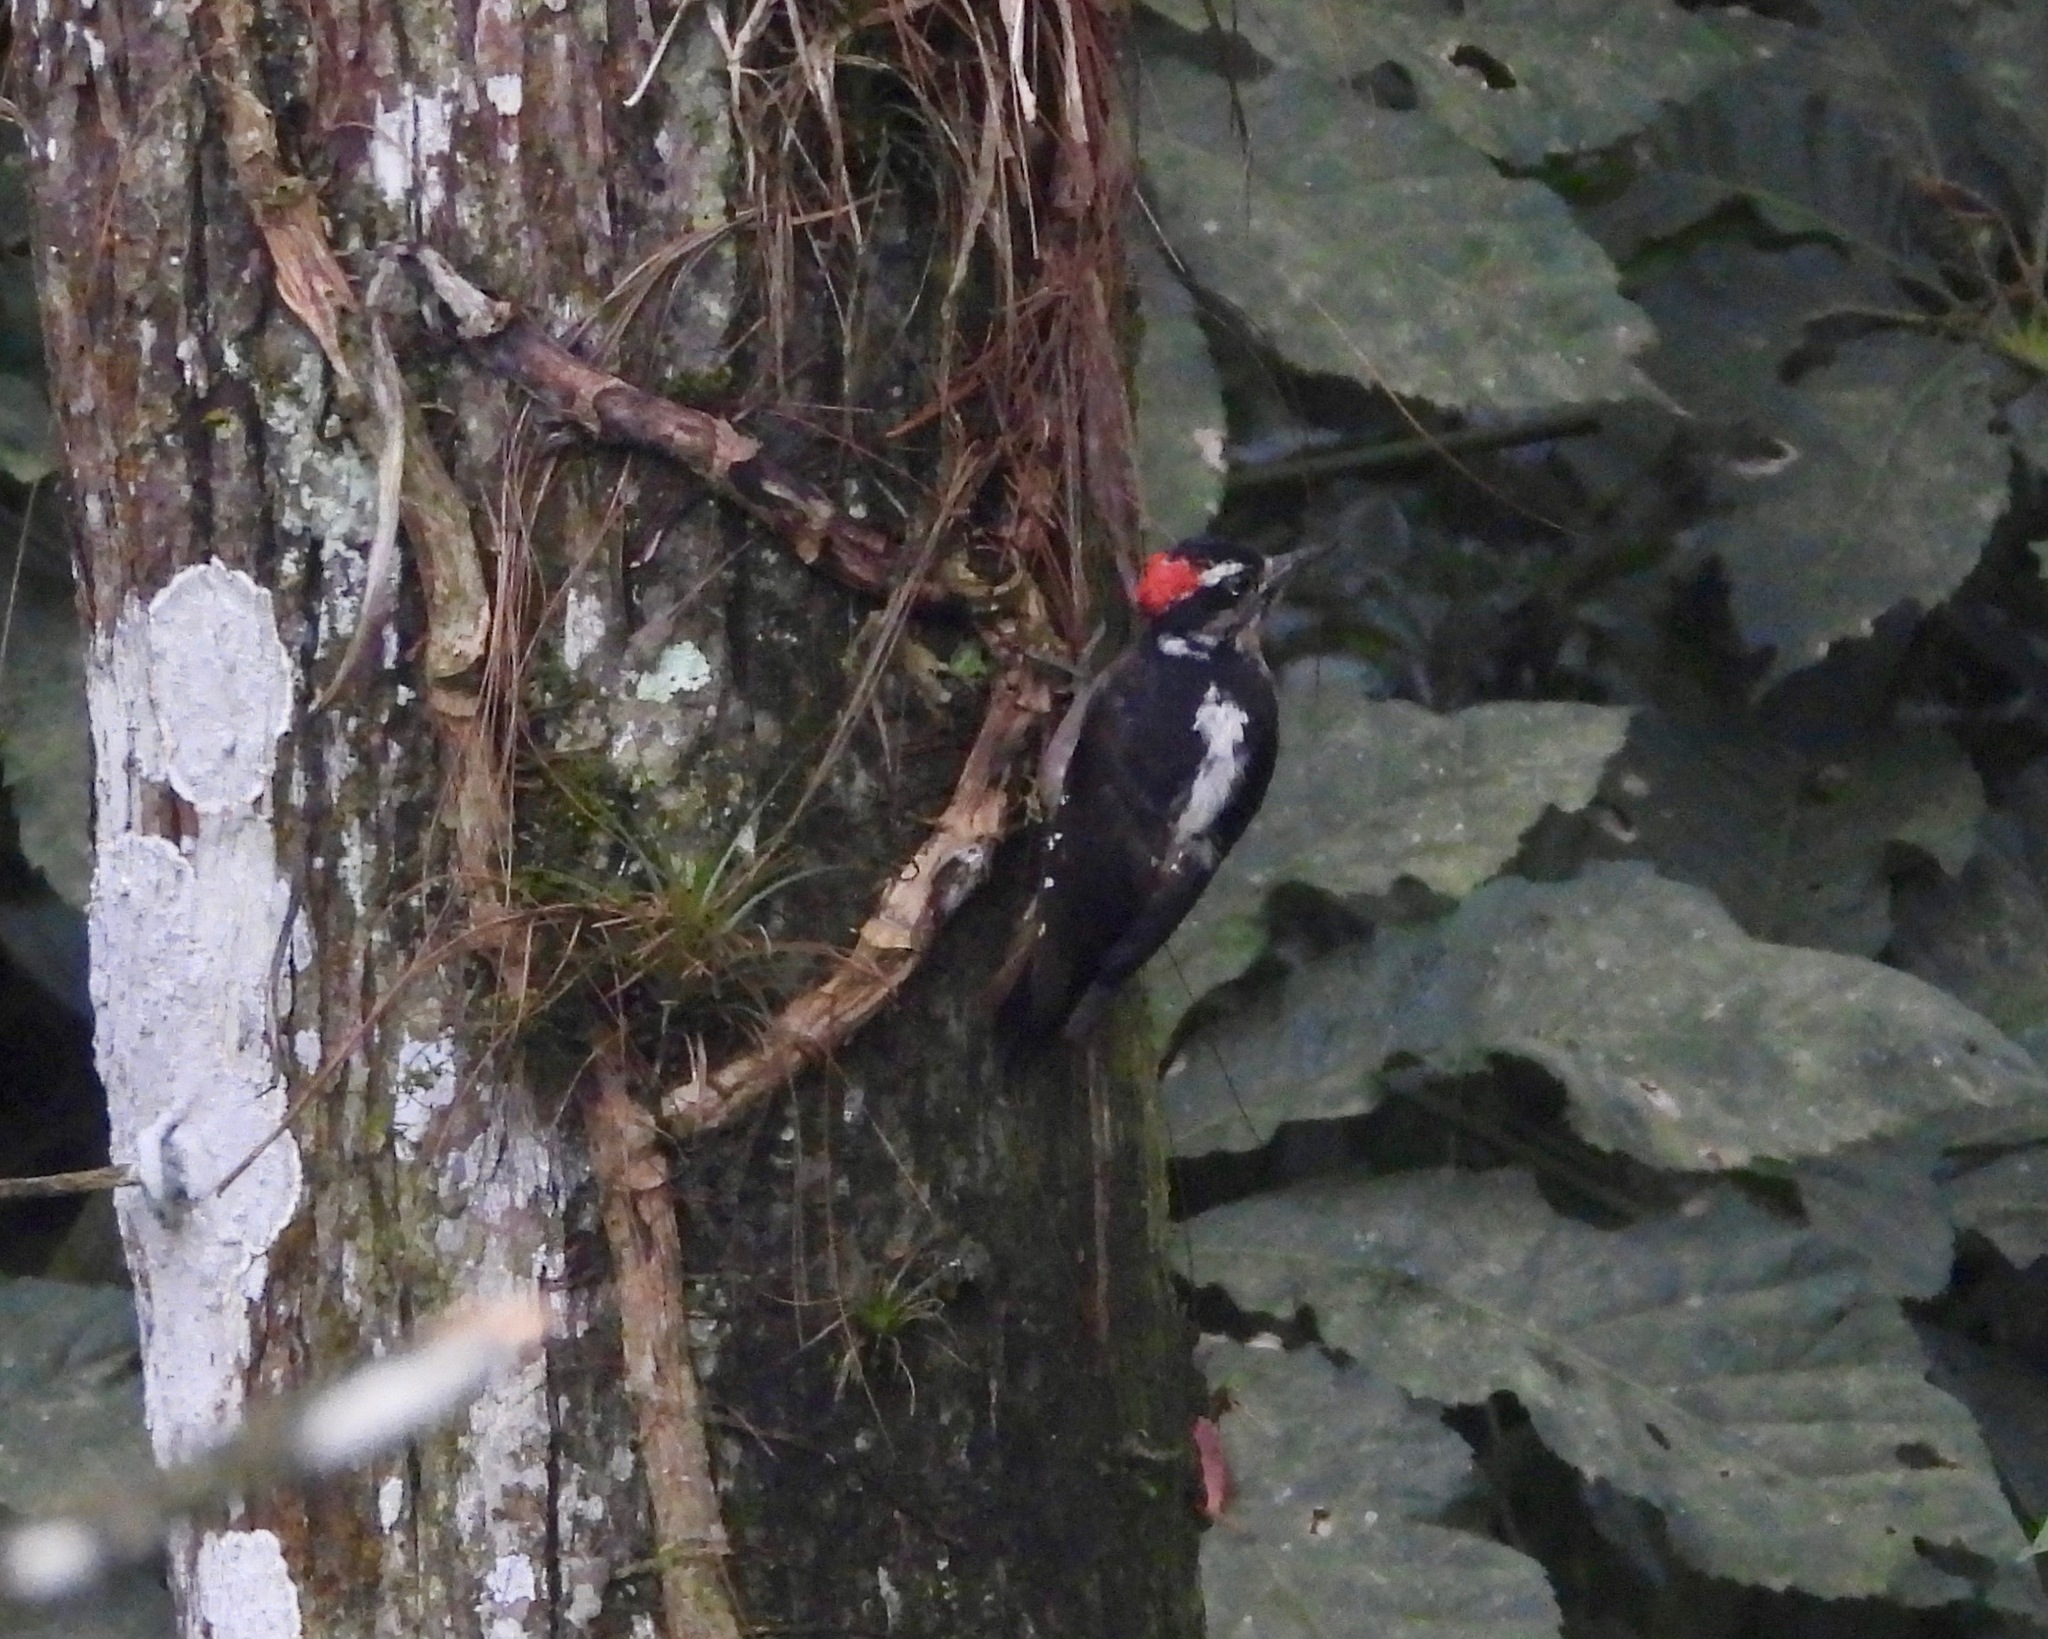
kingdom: Animalia
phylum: Chordata
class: Aves
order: Piciformes
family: Picidae
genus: Leuconotopicus
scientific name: Leuconotopicus villosus
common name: Hairy woodpecker
